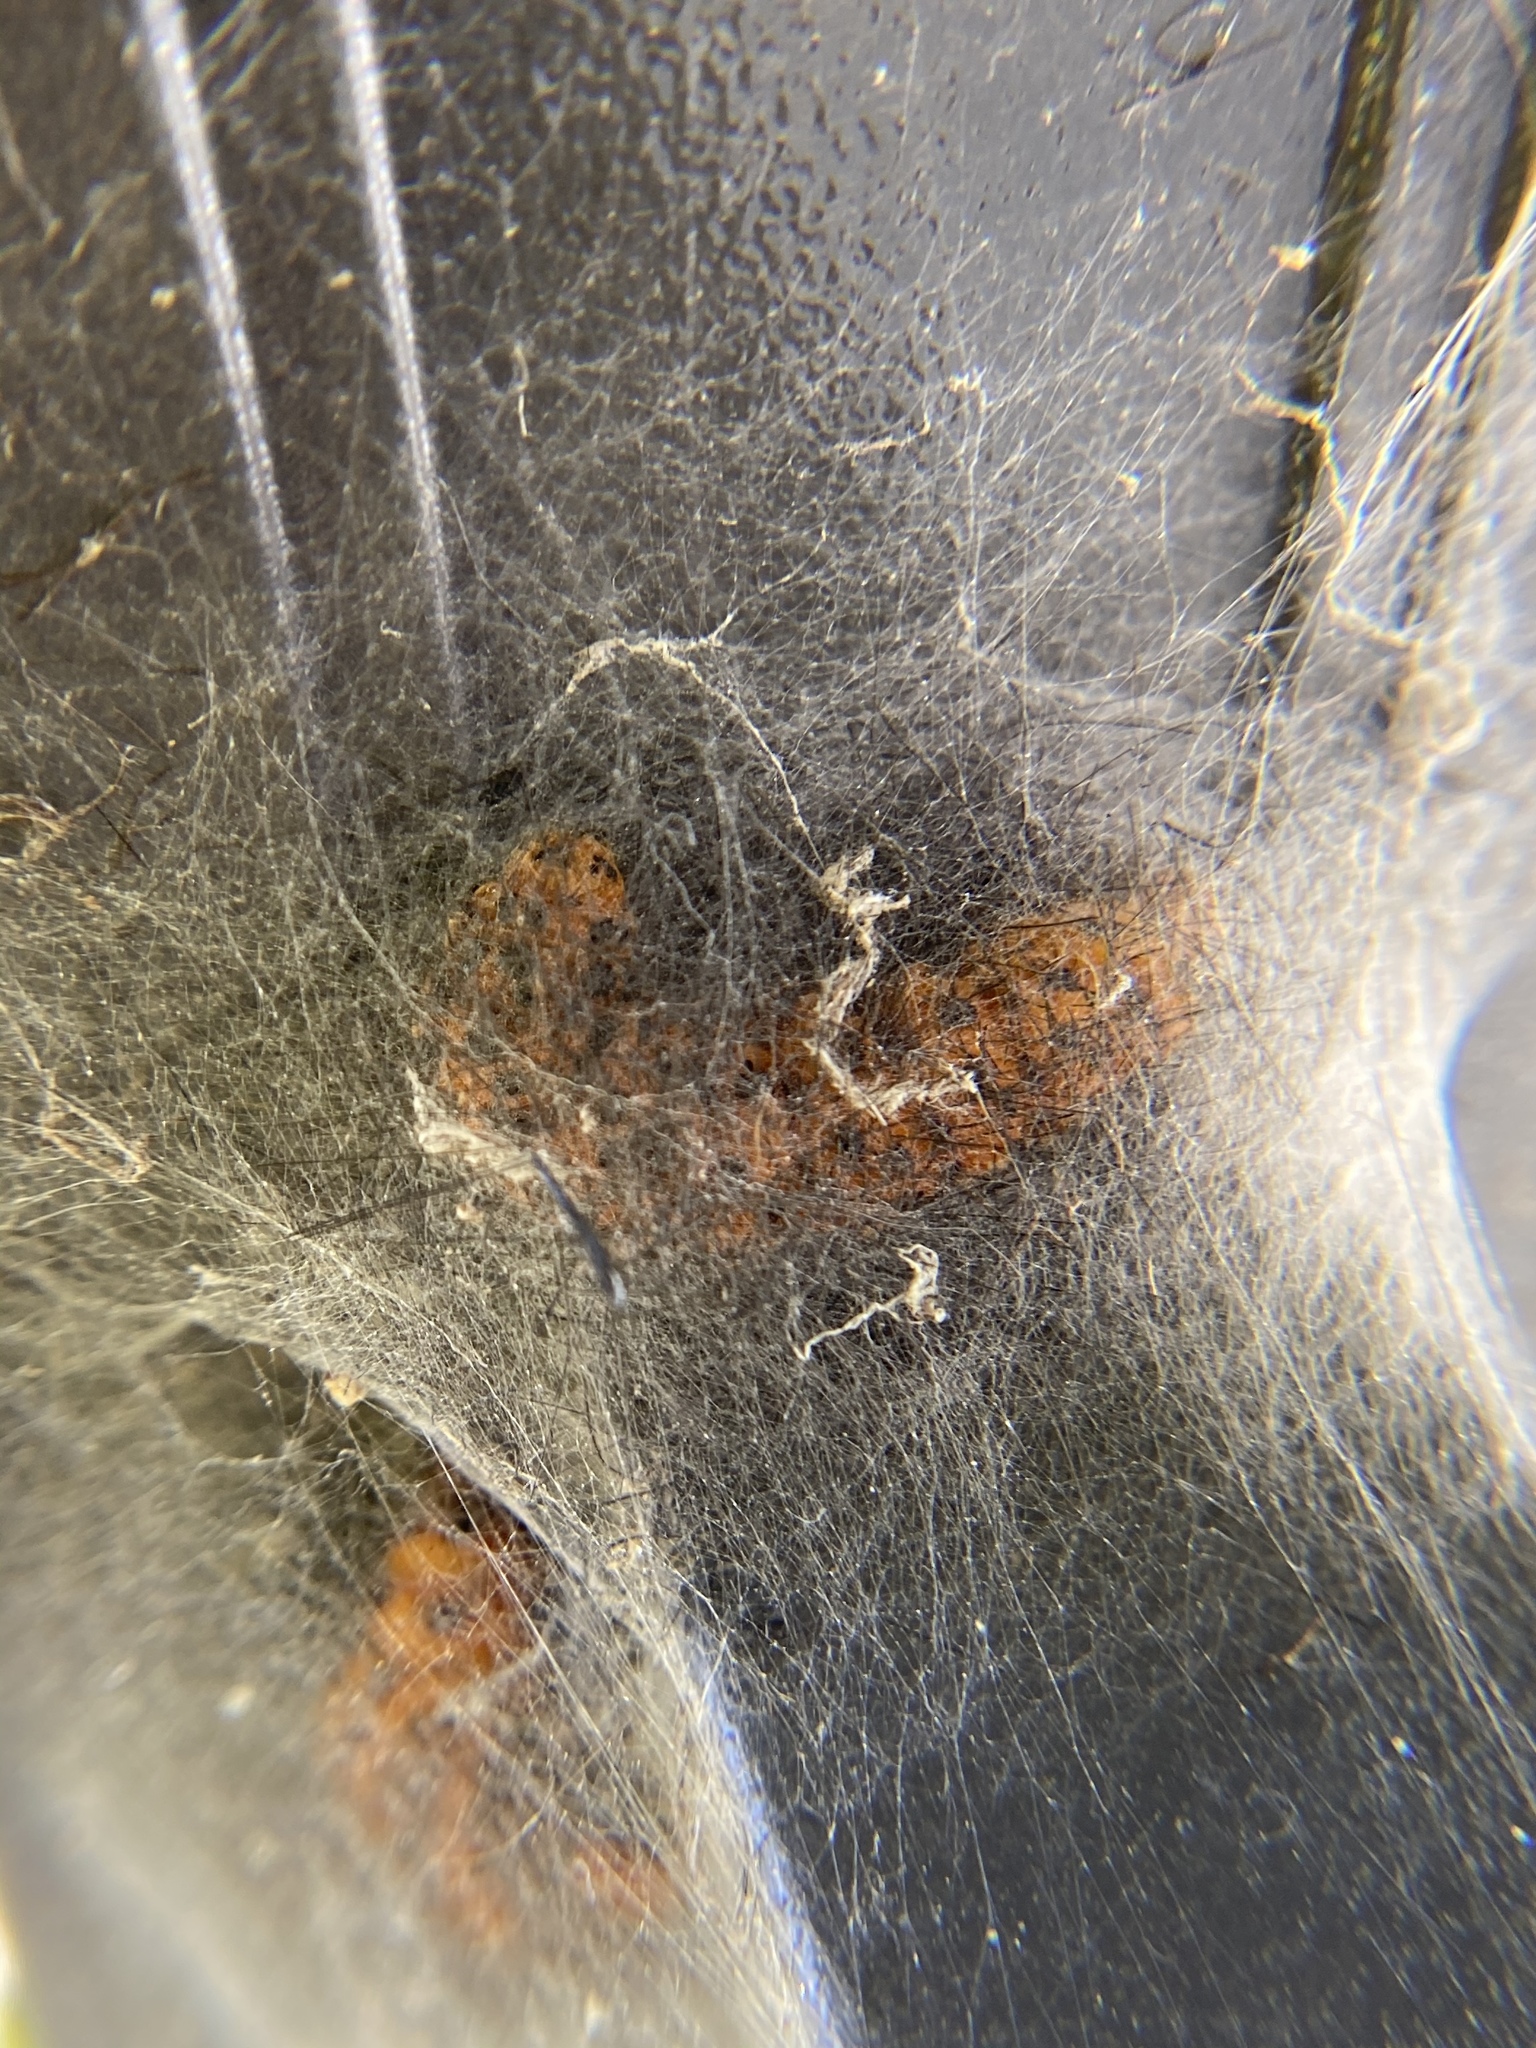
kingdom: Animalia
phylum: Arthropoda
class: Insecta
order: Lepidoptera
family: Erebidae
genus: Syntomeida
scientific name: Syntomeida epilais
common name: Polka-dot wasp moth
